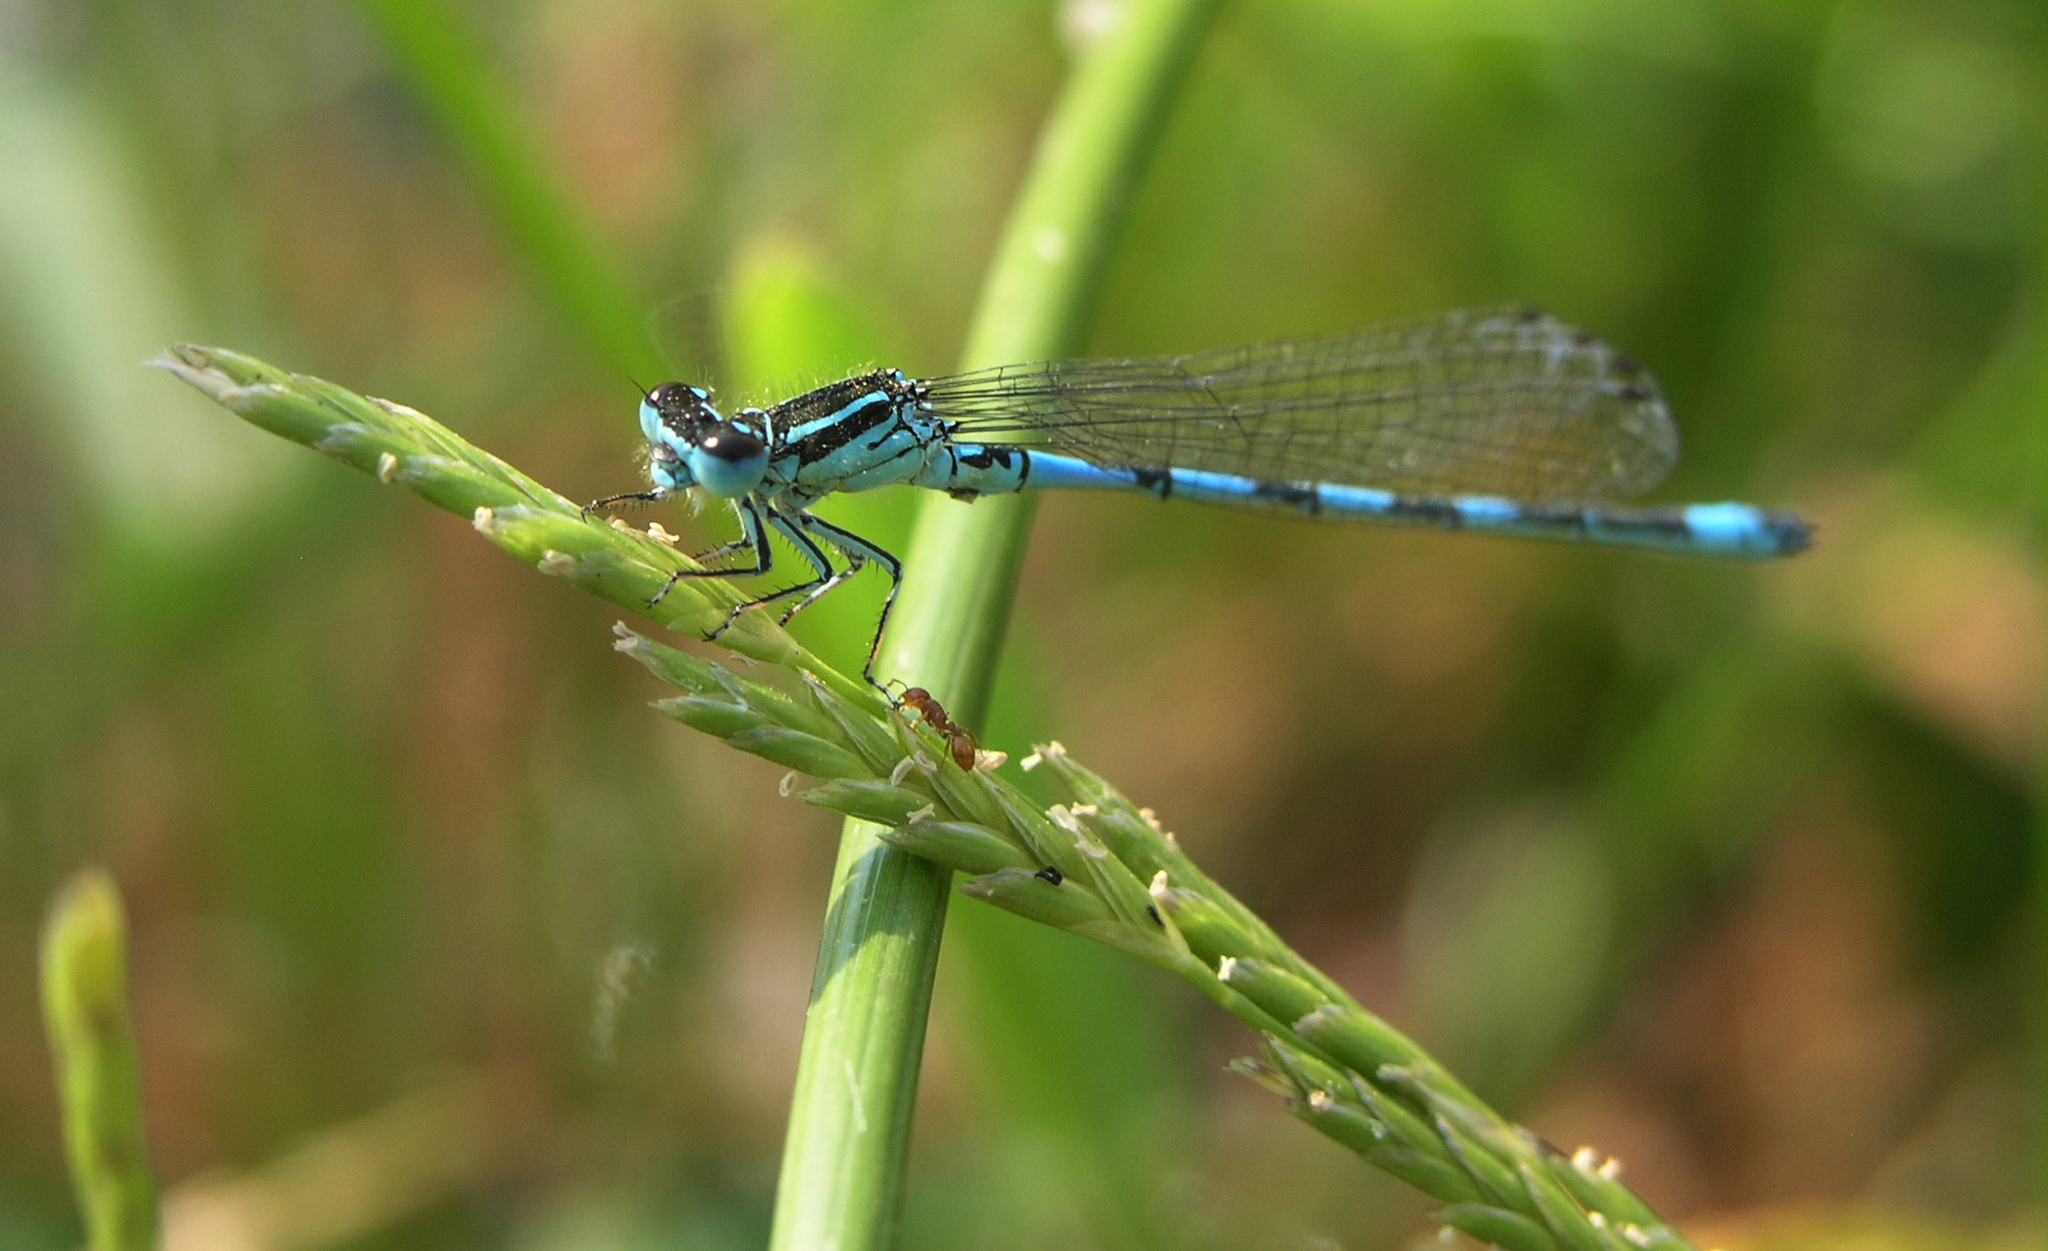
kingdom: Animalia
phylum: Arthropoda
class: Insecta
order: Odonata
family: Coenagrionidae
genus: Coenagrion
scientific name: Coenagrion mercuriale
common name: Southern damselfly
